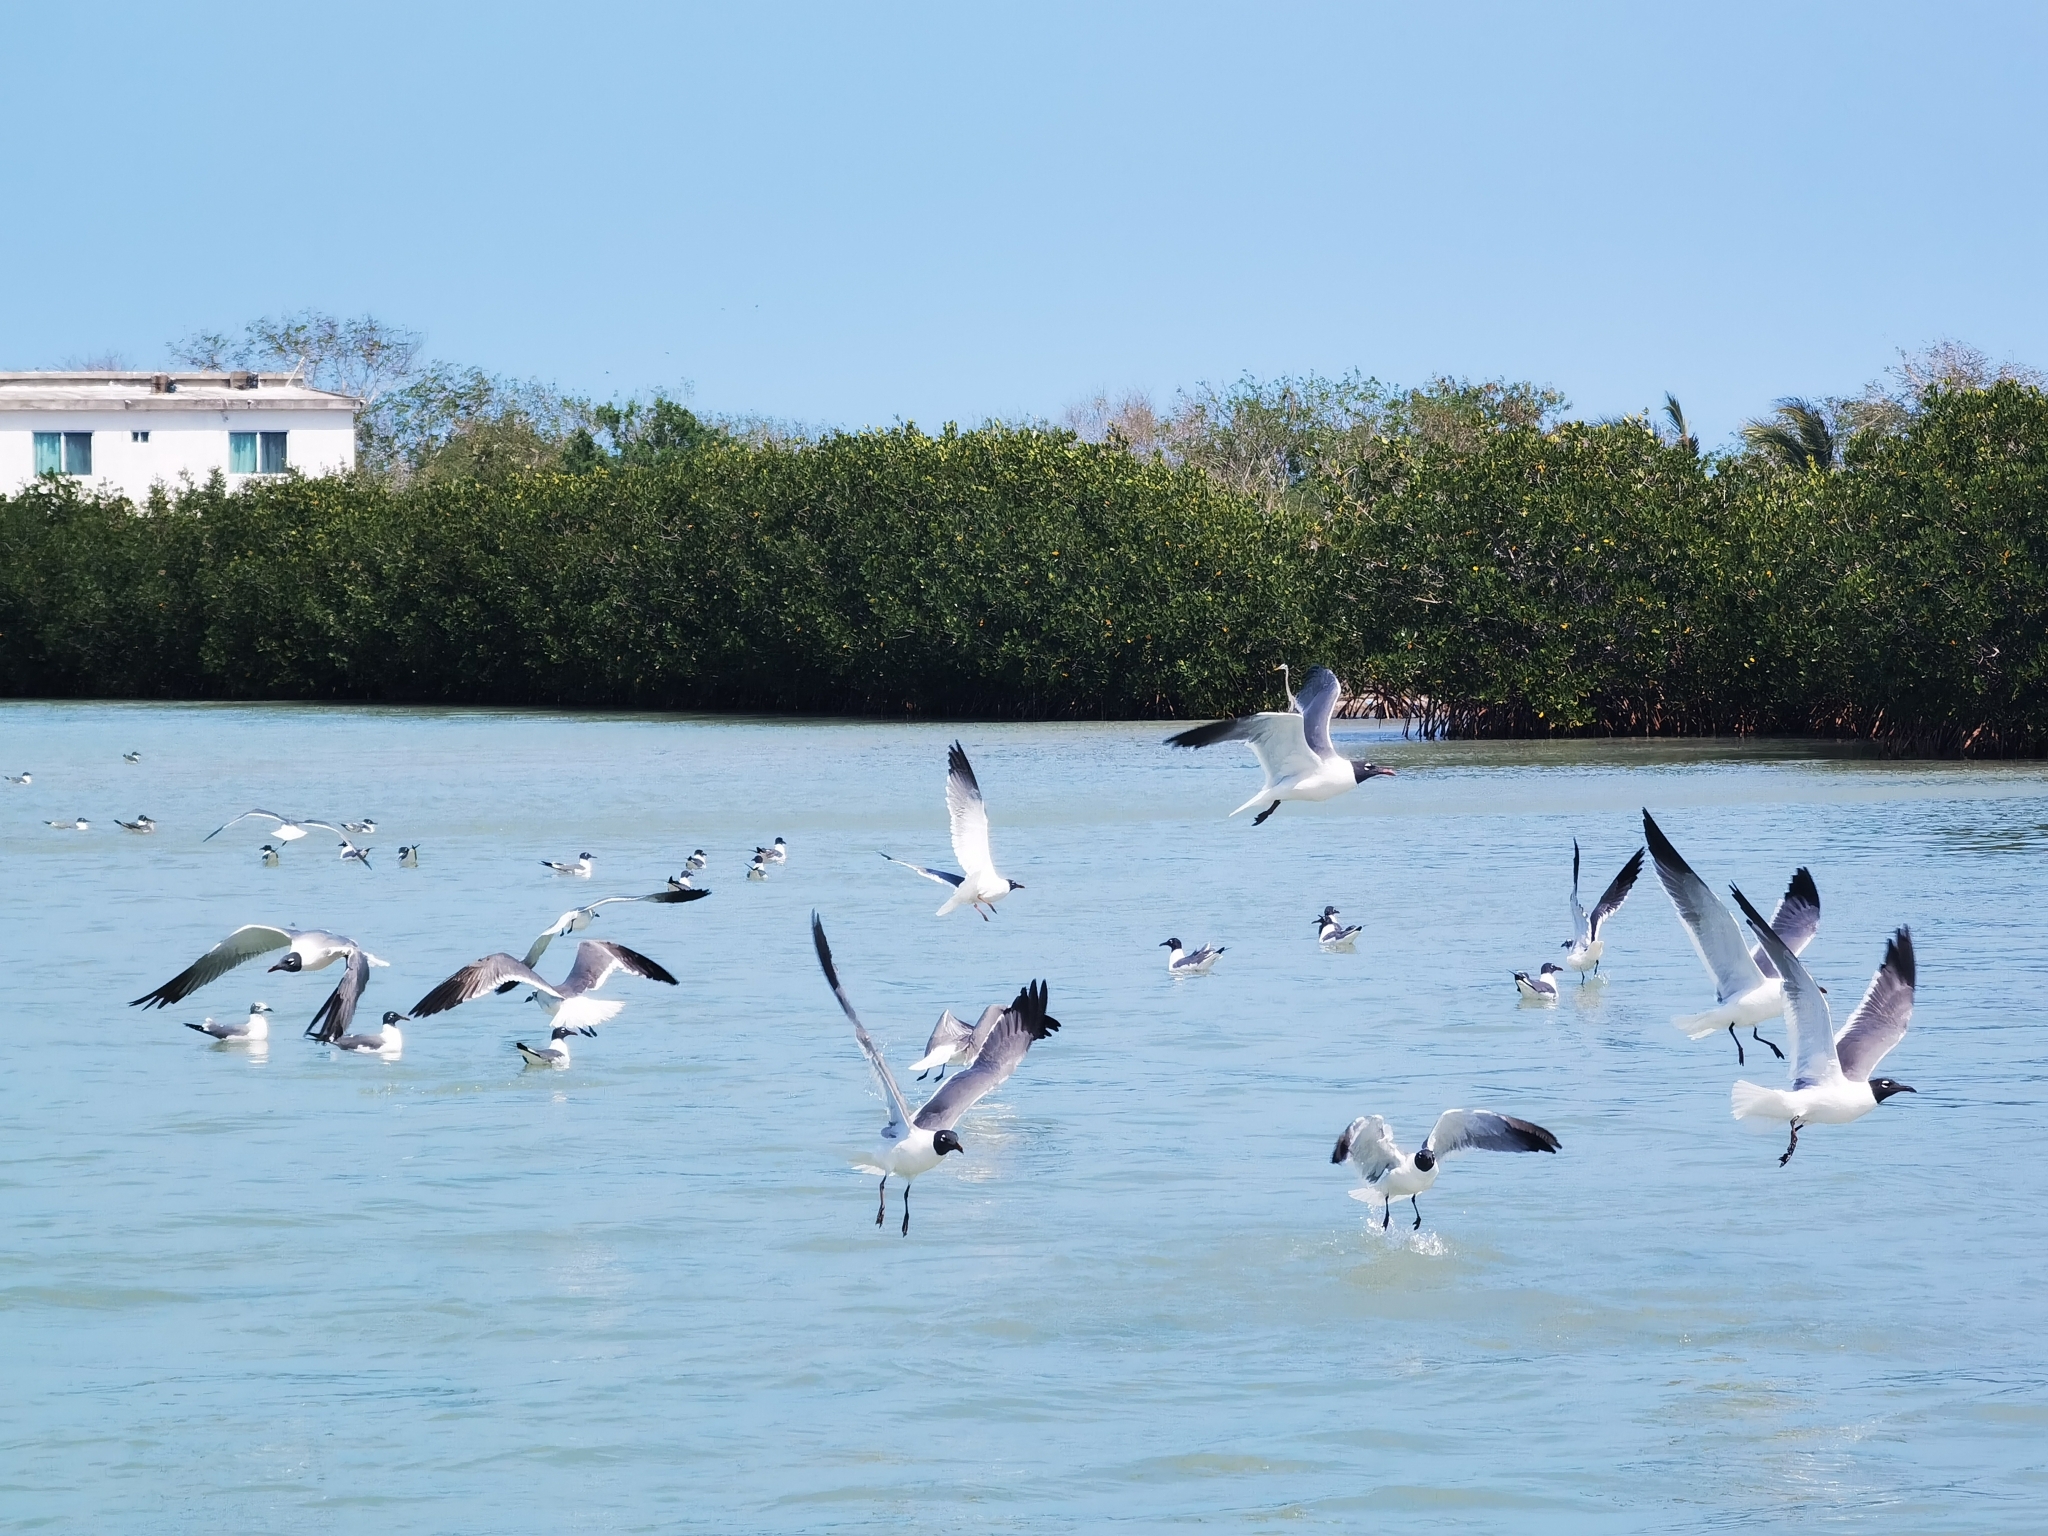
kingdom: Animalia
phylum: Chordata
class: Aves
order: Charadriiformes
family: Laridae
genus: Leucophaeus
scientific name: Leucophaeus atricilla
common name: Laughing gull
